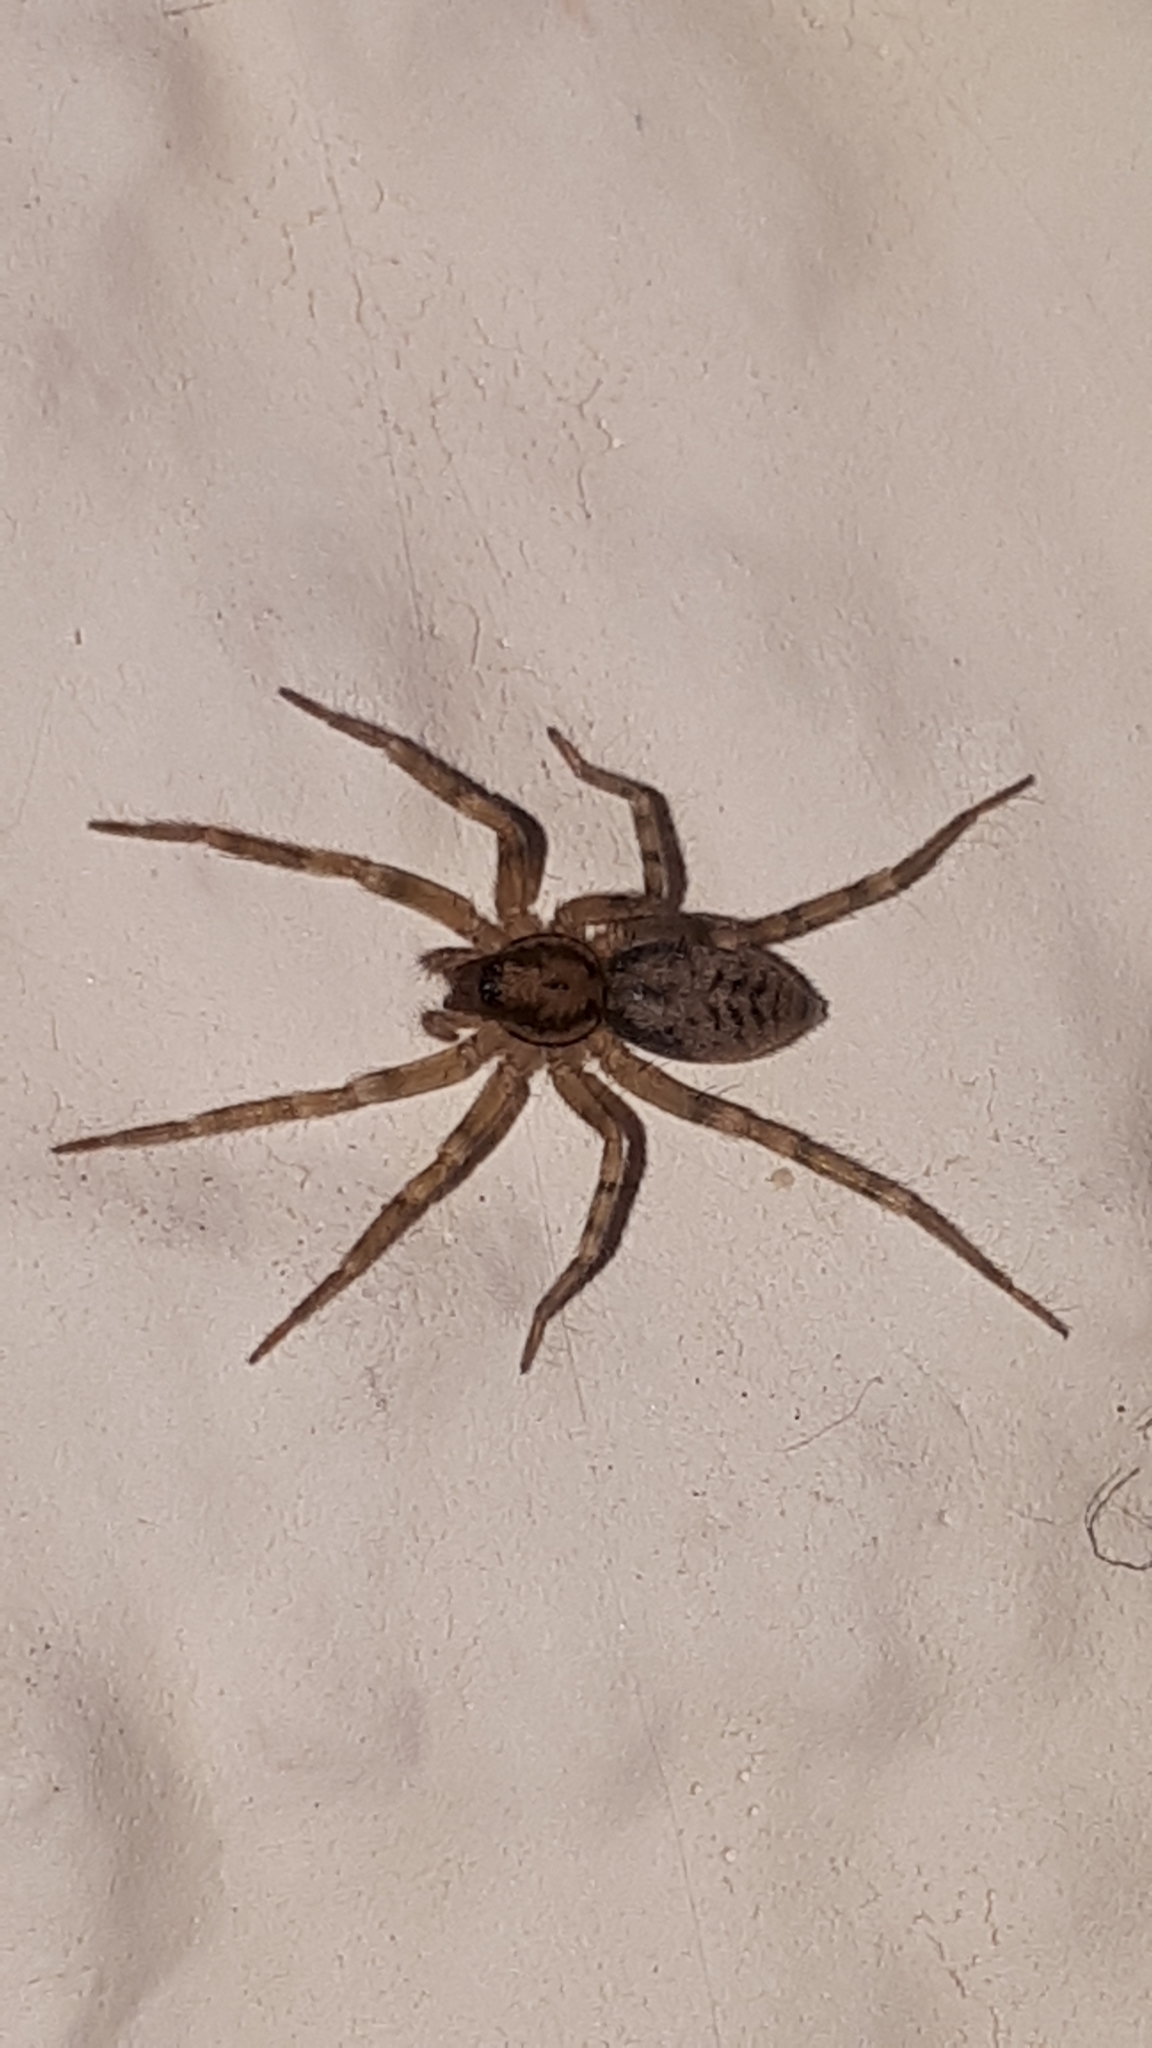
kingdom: Animalia
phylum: Arthropoda
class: Arachnida
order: Araneae
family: Liocranidae
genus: Liocranum
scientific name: Liocranum rupicola
